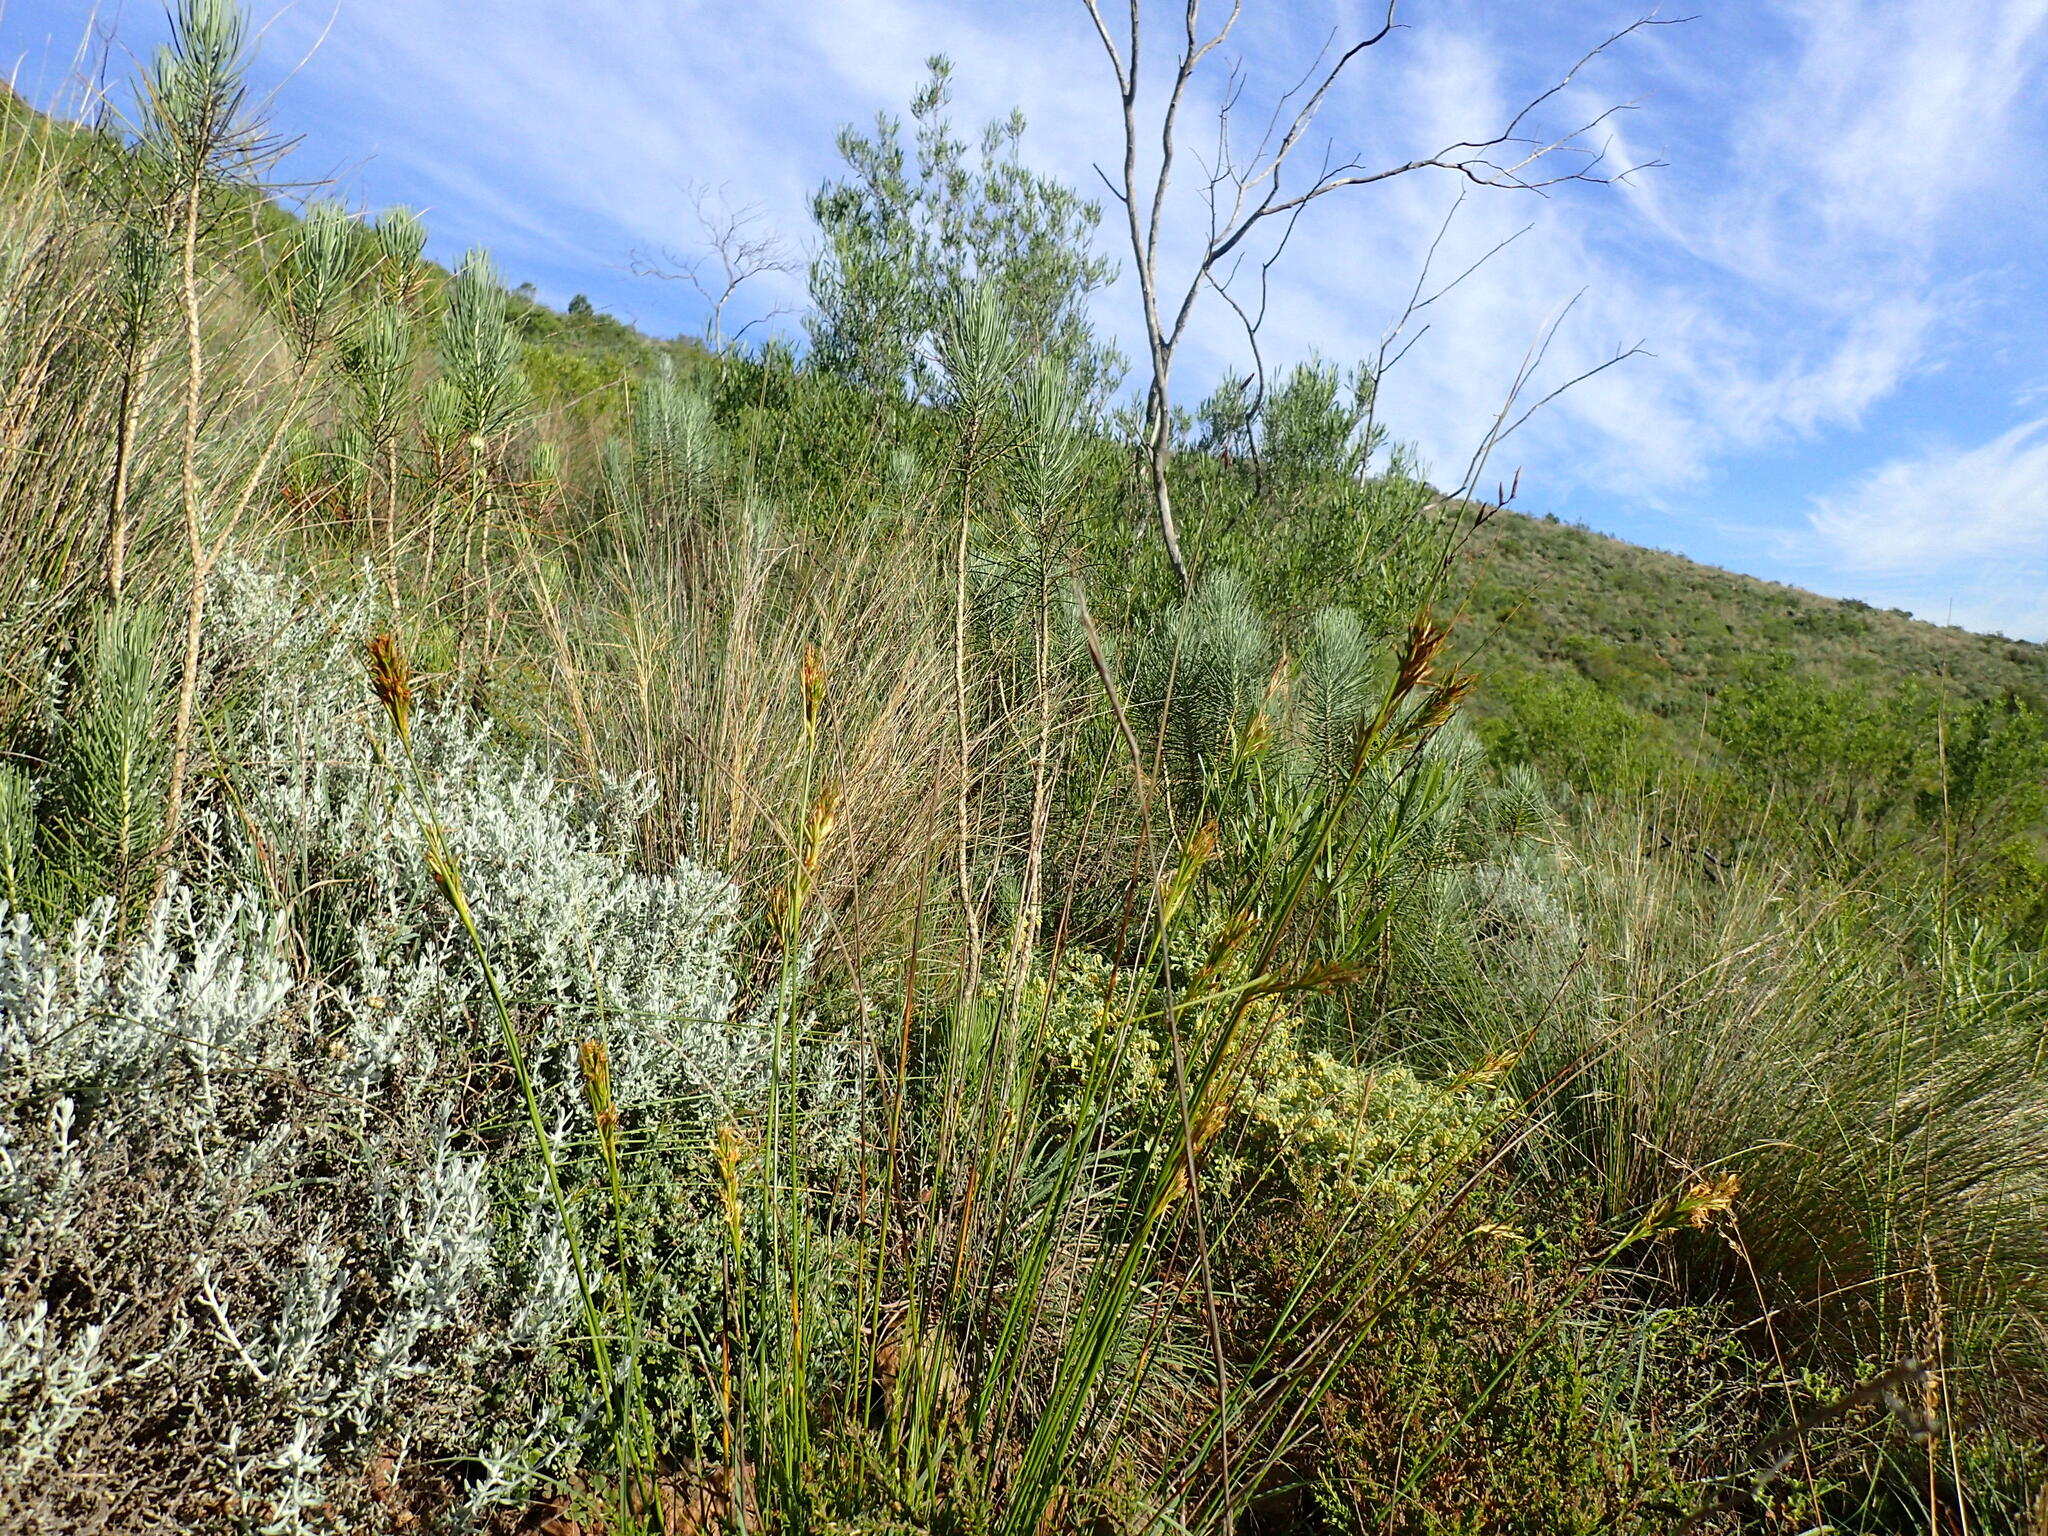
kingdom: Plantae
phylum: Tracheophyta
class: Liliopsida
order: Poales
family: Cyperaceae
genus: Carex
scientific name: Carex capensis
